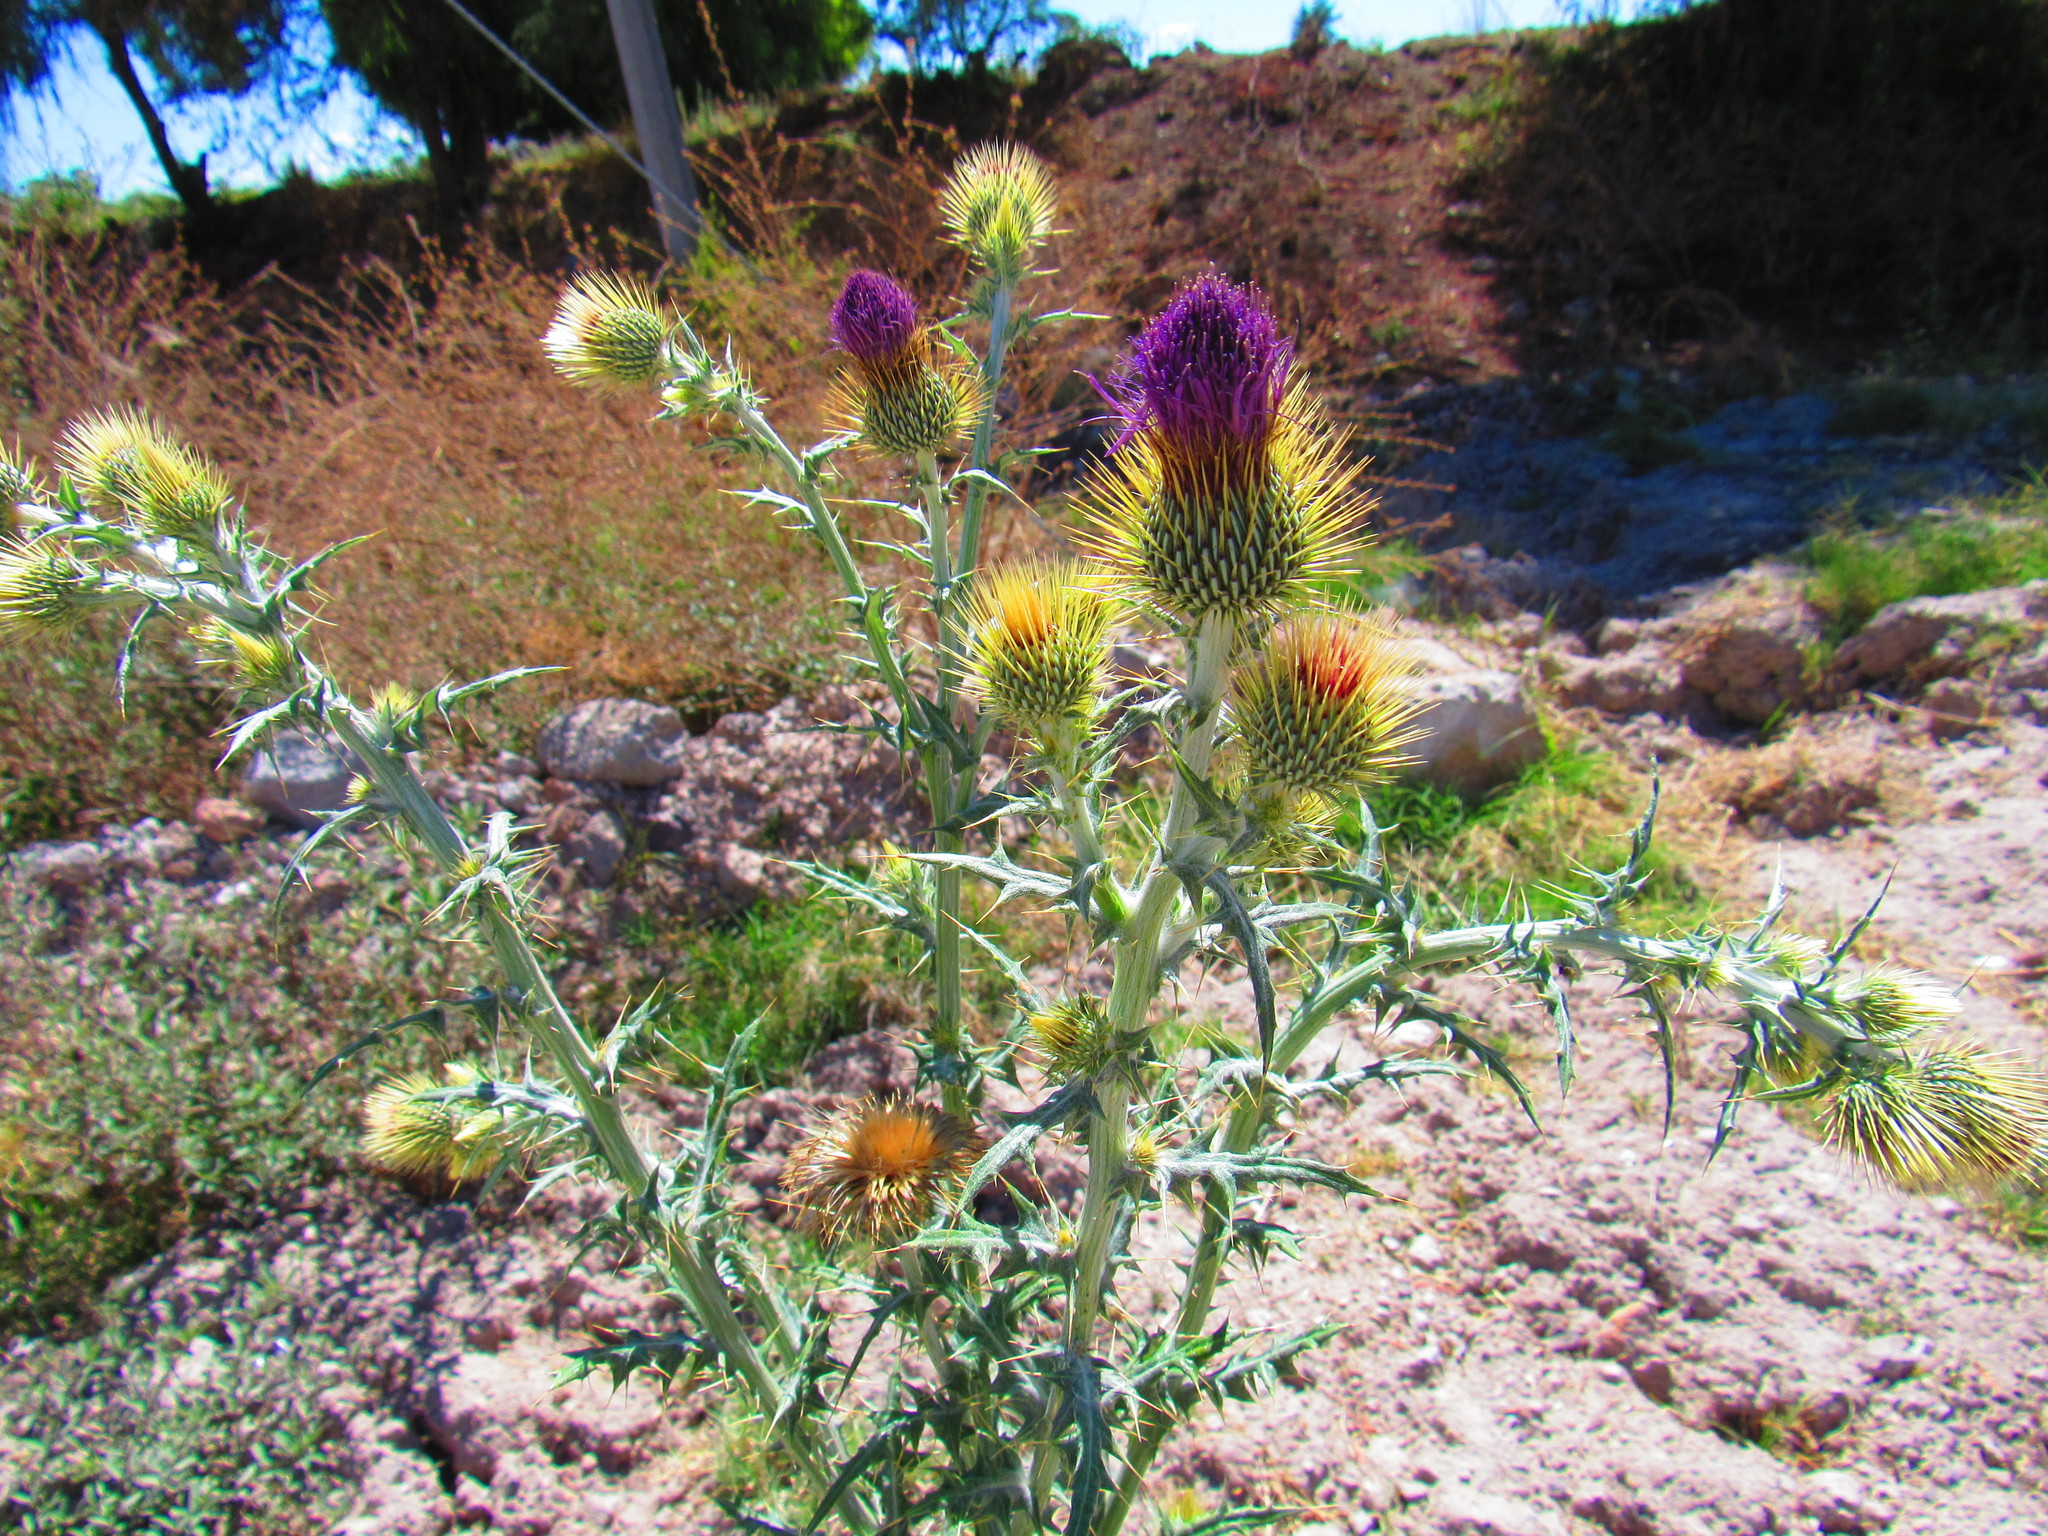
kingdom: Plantae
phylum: Tracheophyta
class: Magnoliopsida
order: Asterales
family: Asteraceae
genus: Cirsium
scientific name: Cirsium rhaphilepis
